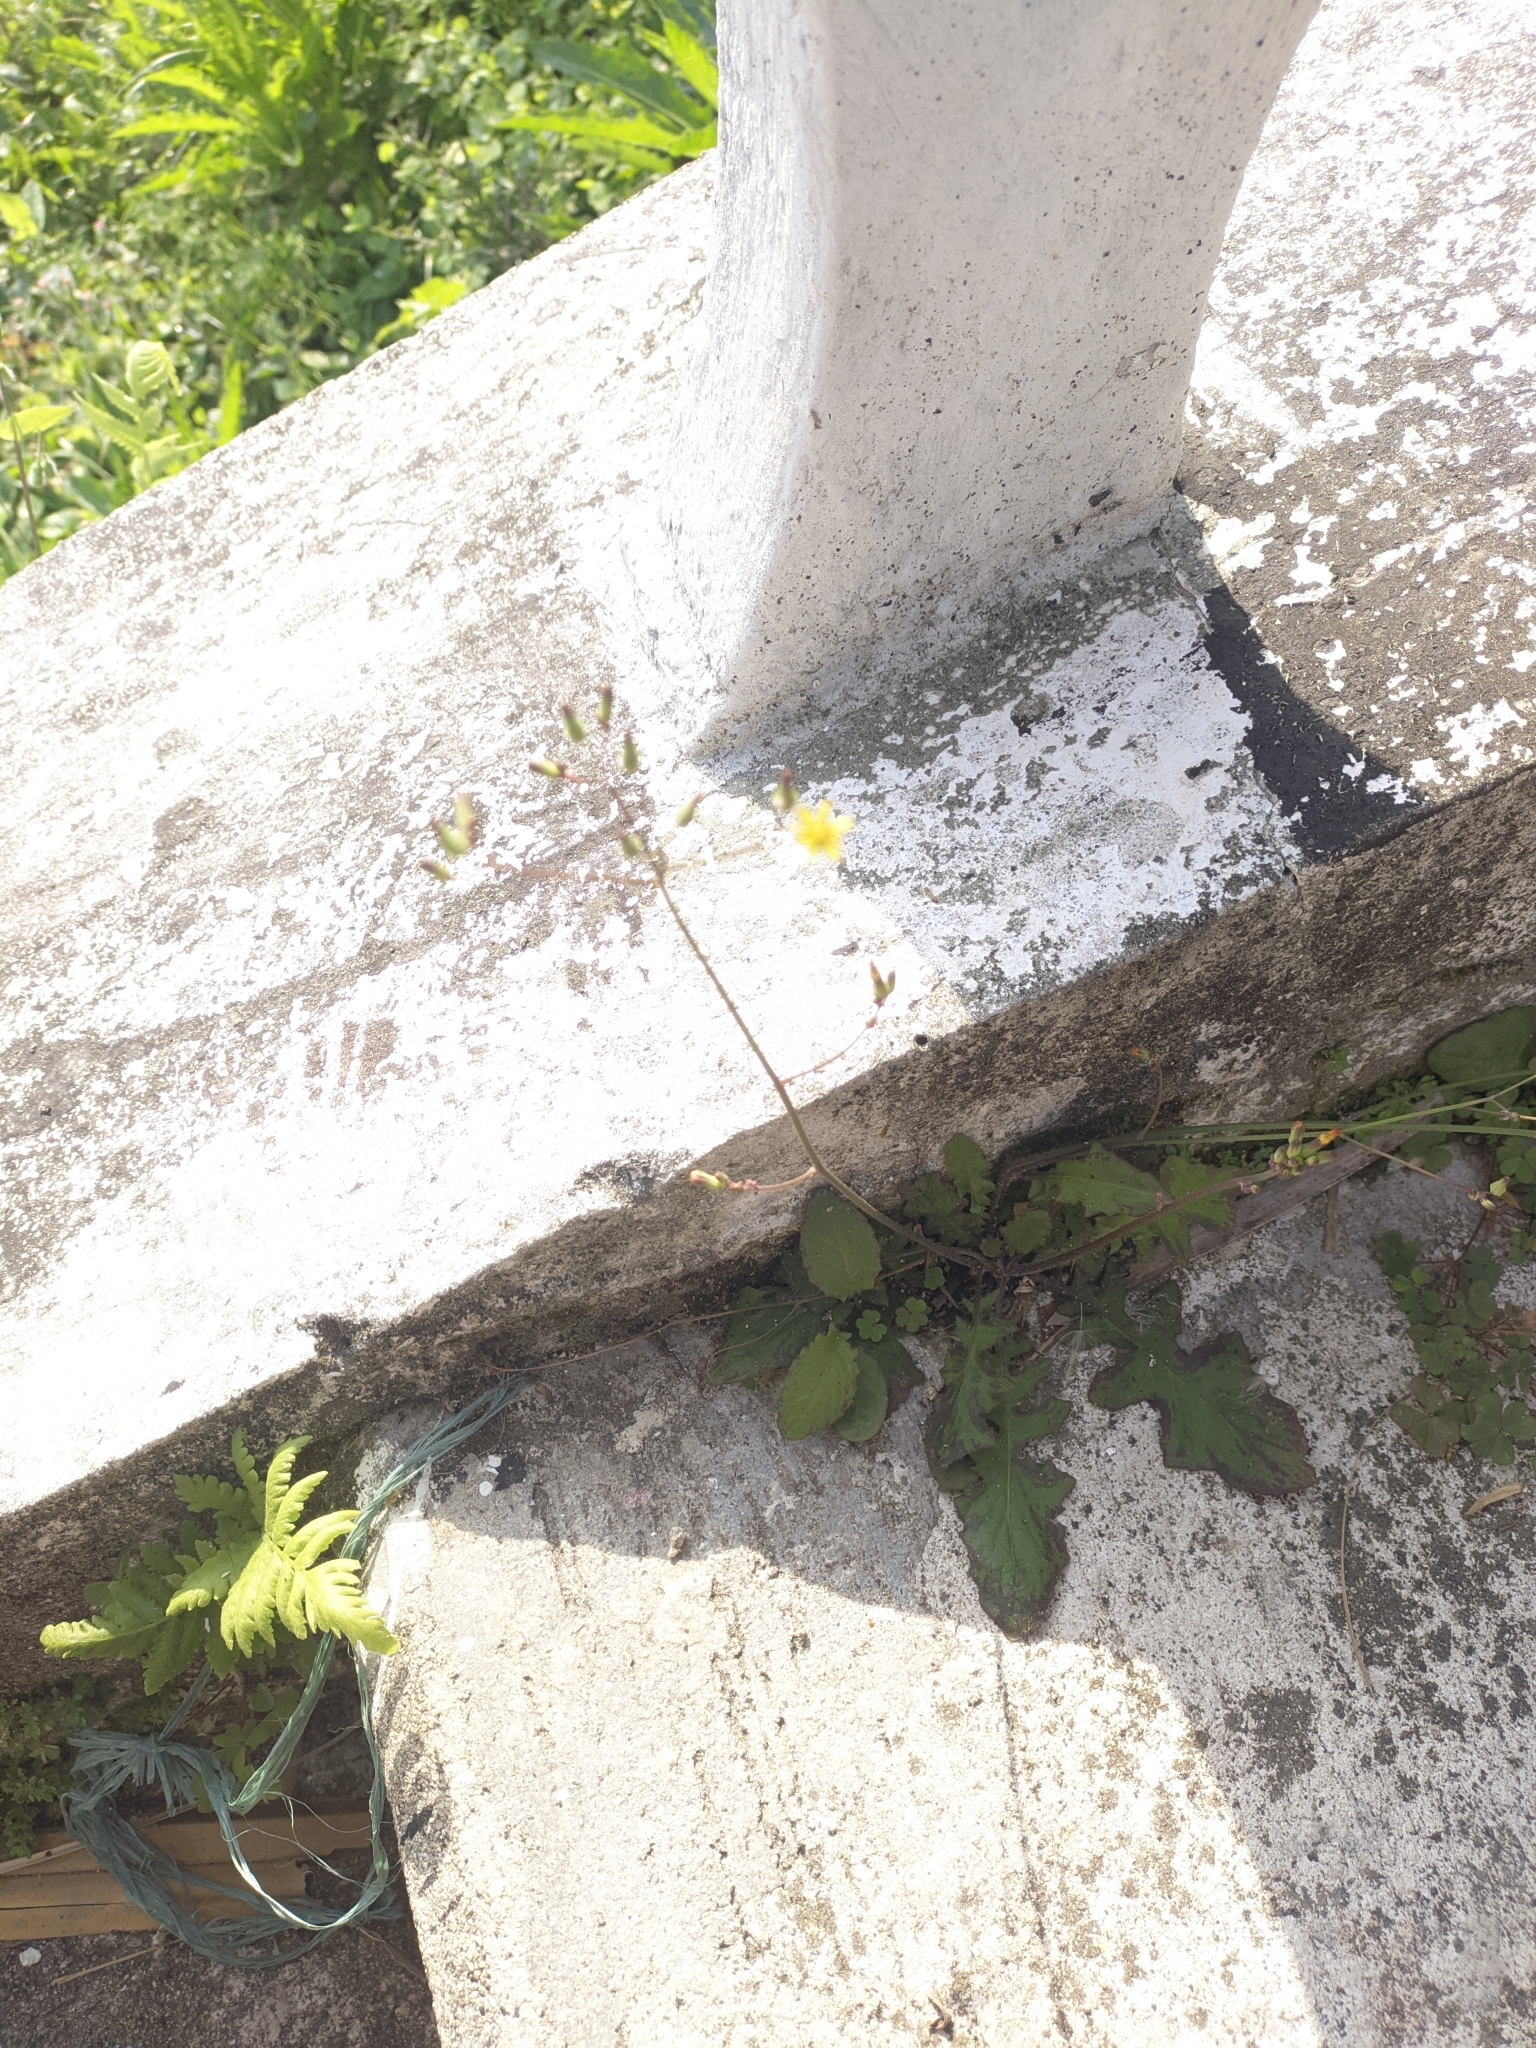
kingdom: Plantae
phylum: Tracheophyta
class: Magnoliopsida
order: Asterales
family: Asteraceae
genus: Youngia
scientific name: Youngia japonica
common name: Oriental false hawksbeard
